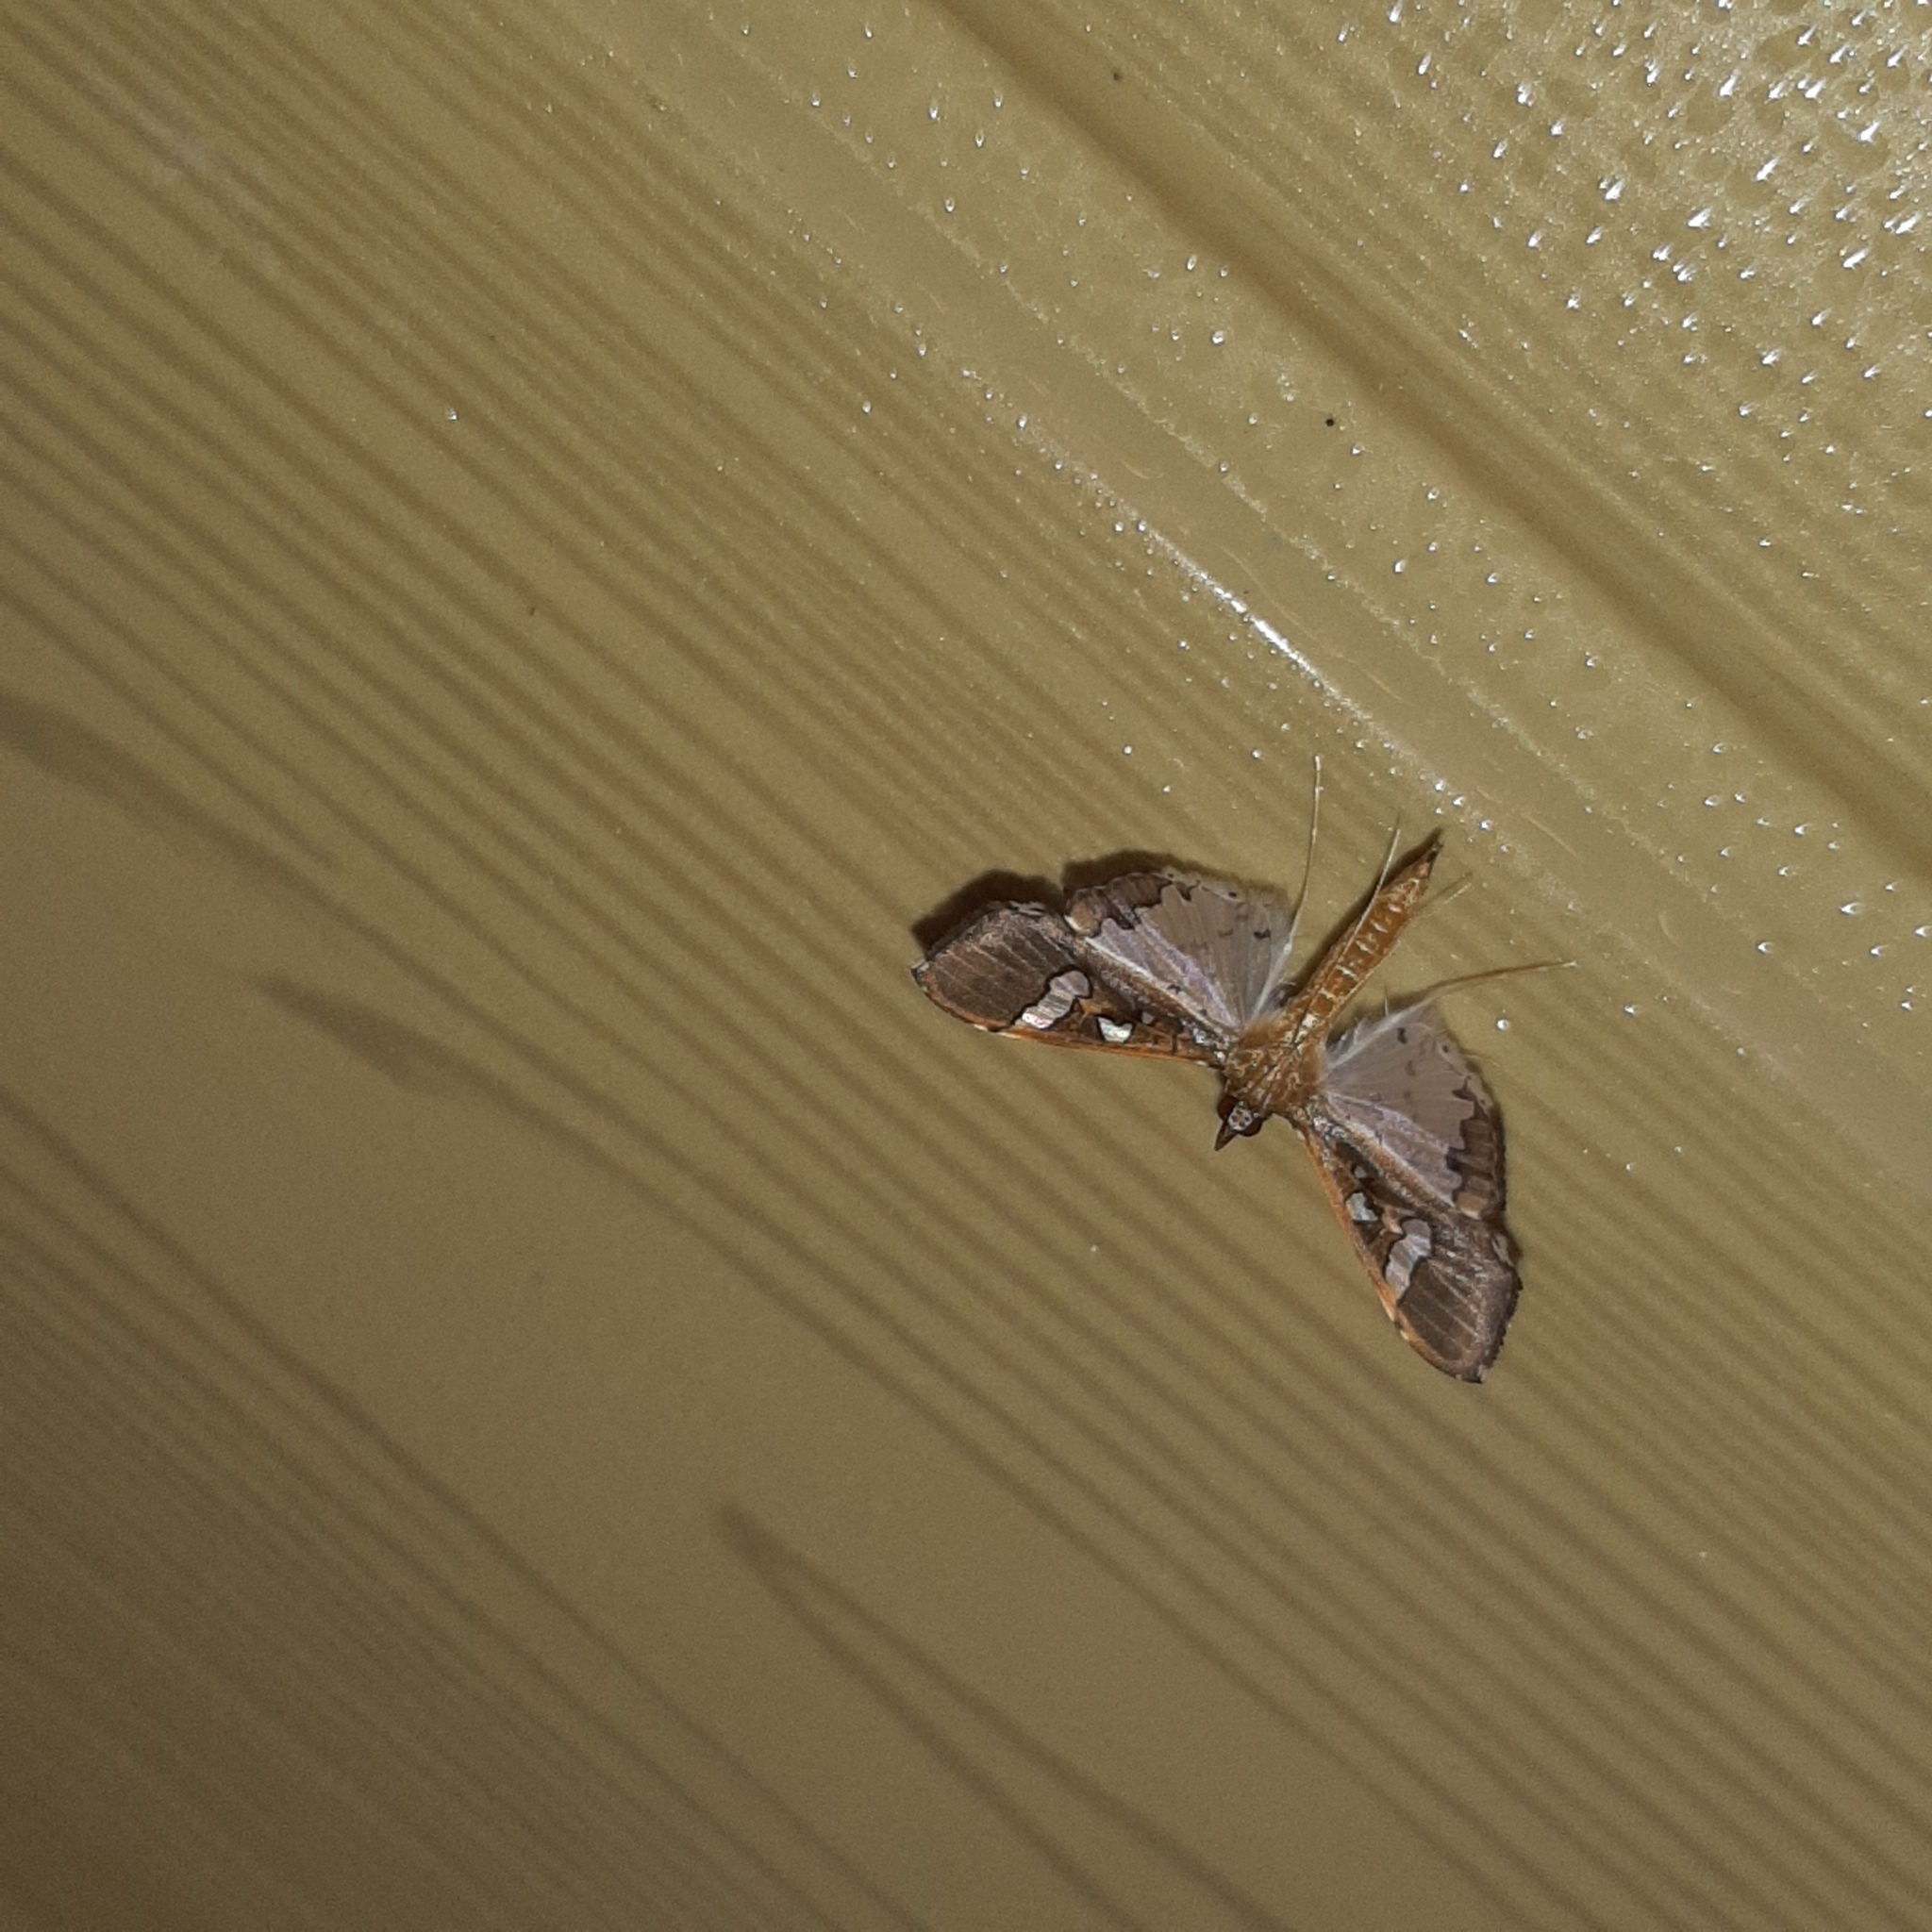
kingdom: Animalia
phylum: Arthropoda
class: Insecta
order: Lepidoptera
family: Crambidae
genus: Maruca
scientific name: Maruca vitrata
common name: Maruca pod borer
